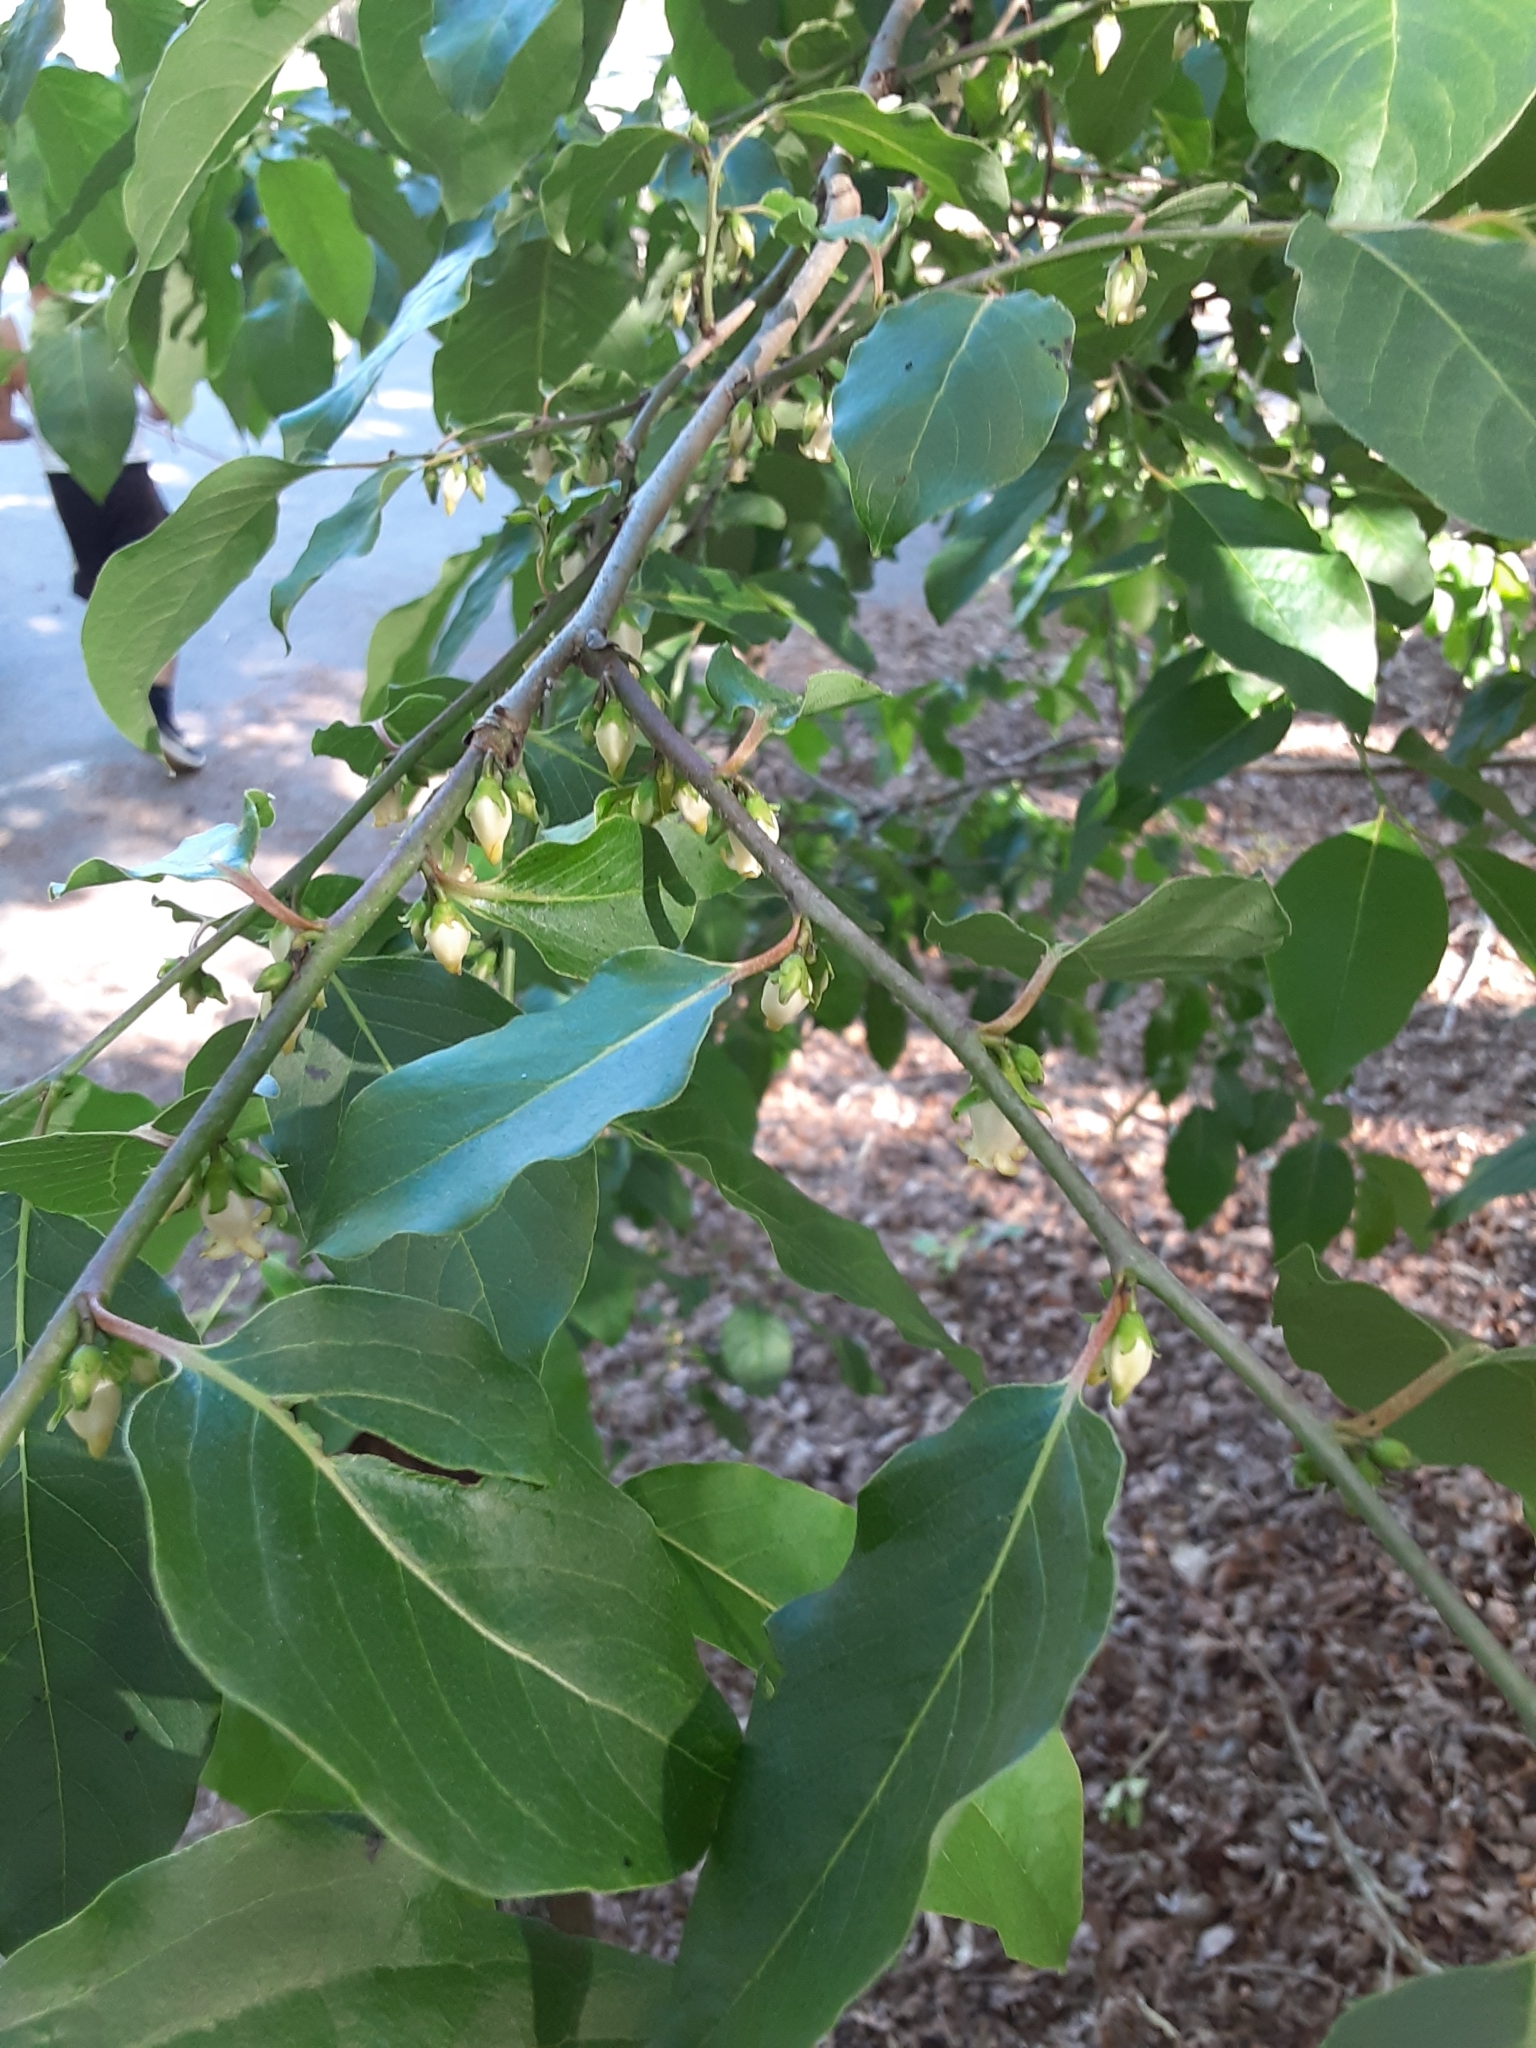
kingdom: Plantae
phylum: Tracheophyta
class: Magnoliopsida
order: Ericales
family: Ebenaceae
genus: Diospyros
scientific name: Diospyros virginiana
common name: Persimmon
